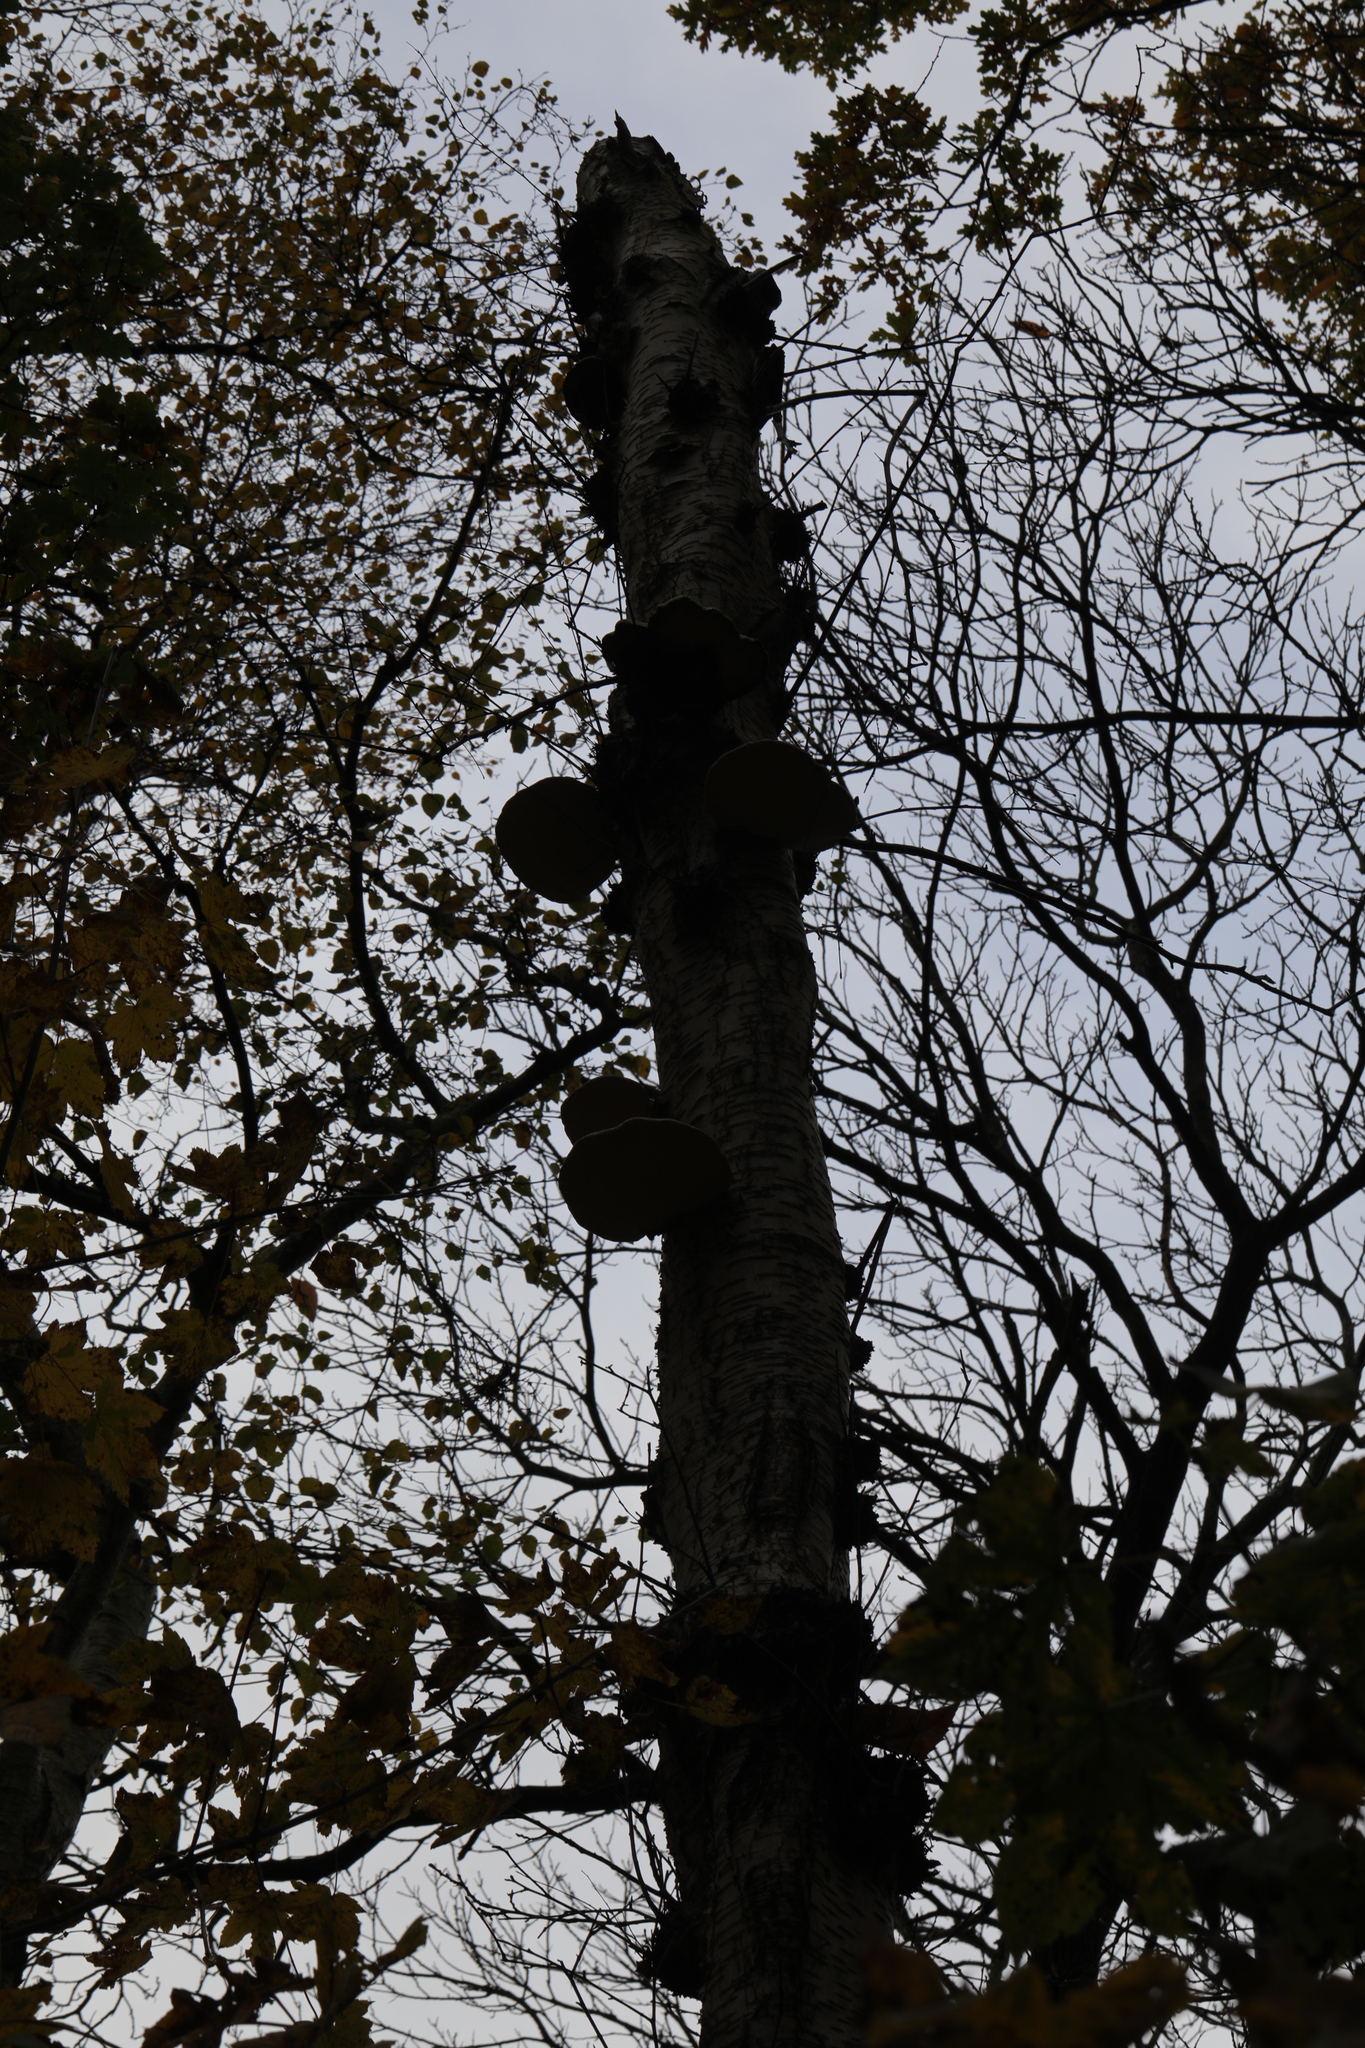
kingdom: Fungi
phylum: Basidiomycota
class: Agaricomycetes
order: Polyporales
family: Fomitopsidaceae
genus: Fomitopsis
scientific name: Fomitopsis betulina
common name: Birch polypore
